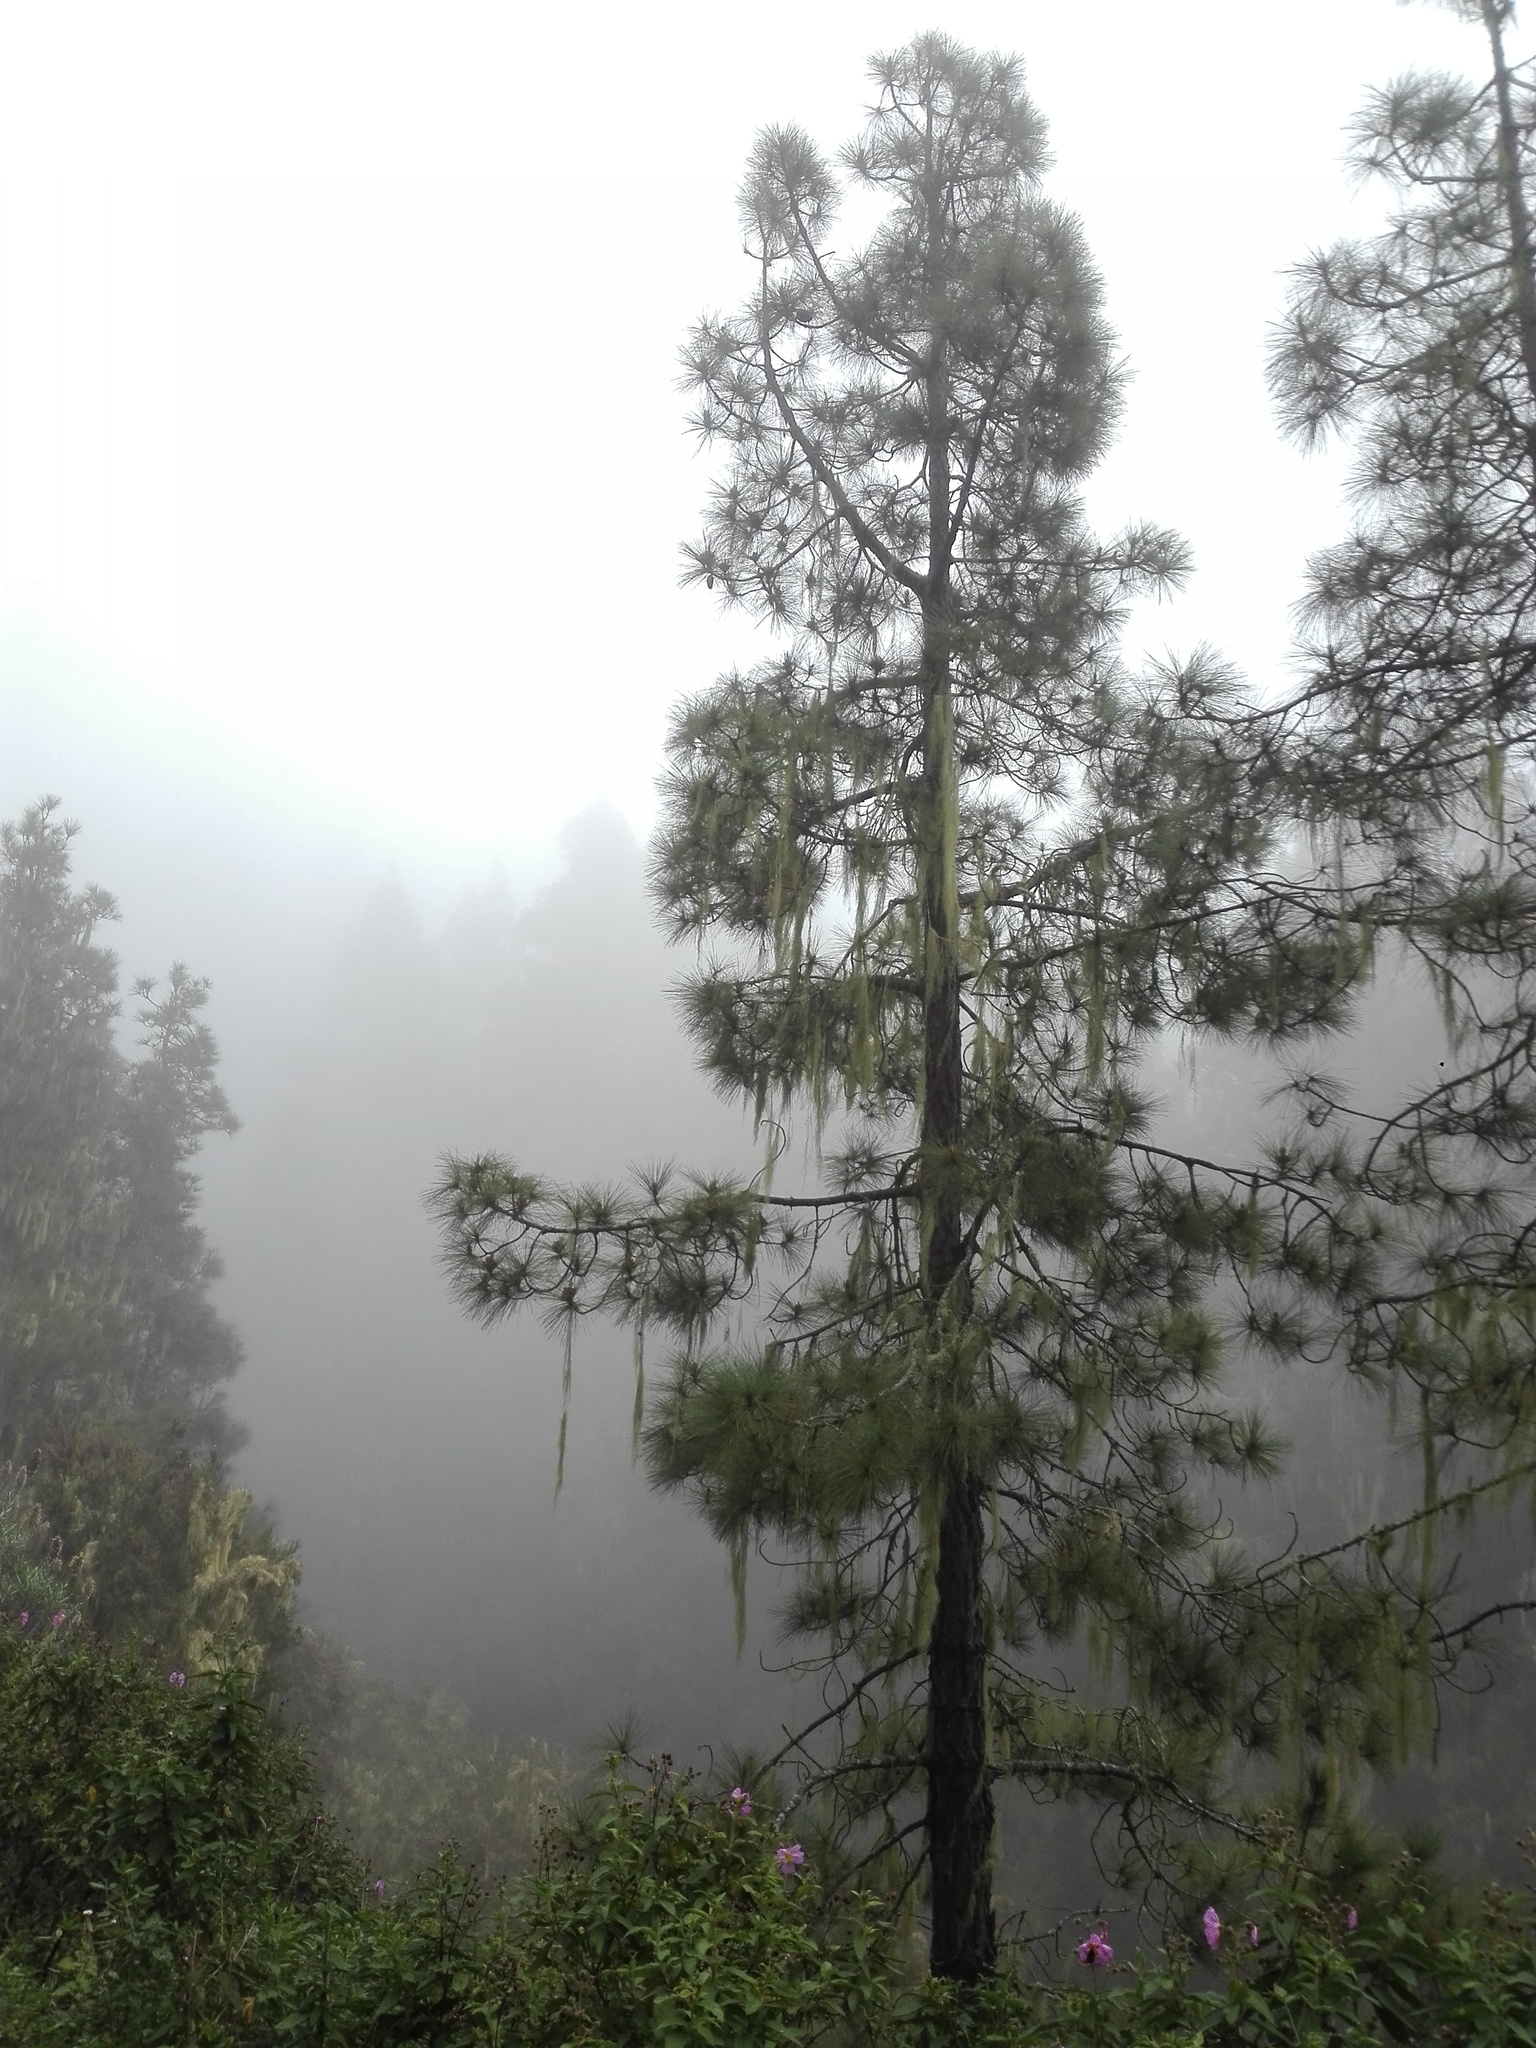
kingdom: Plantae
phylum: Tracheophyta
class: Pinopsida
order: Pinales
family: Pinaceae
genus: Pinus
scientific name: Pinus canariensis
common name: Canary islands pine
